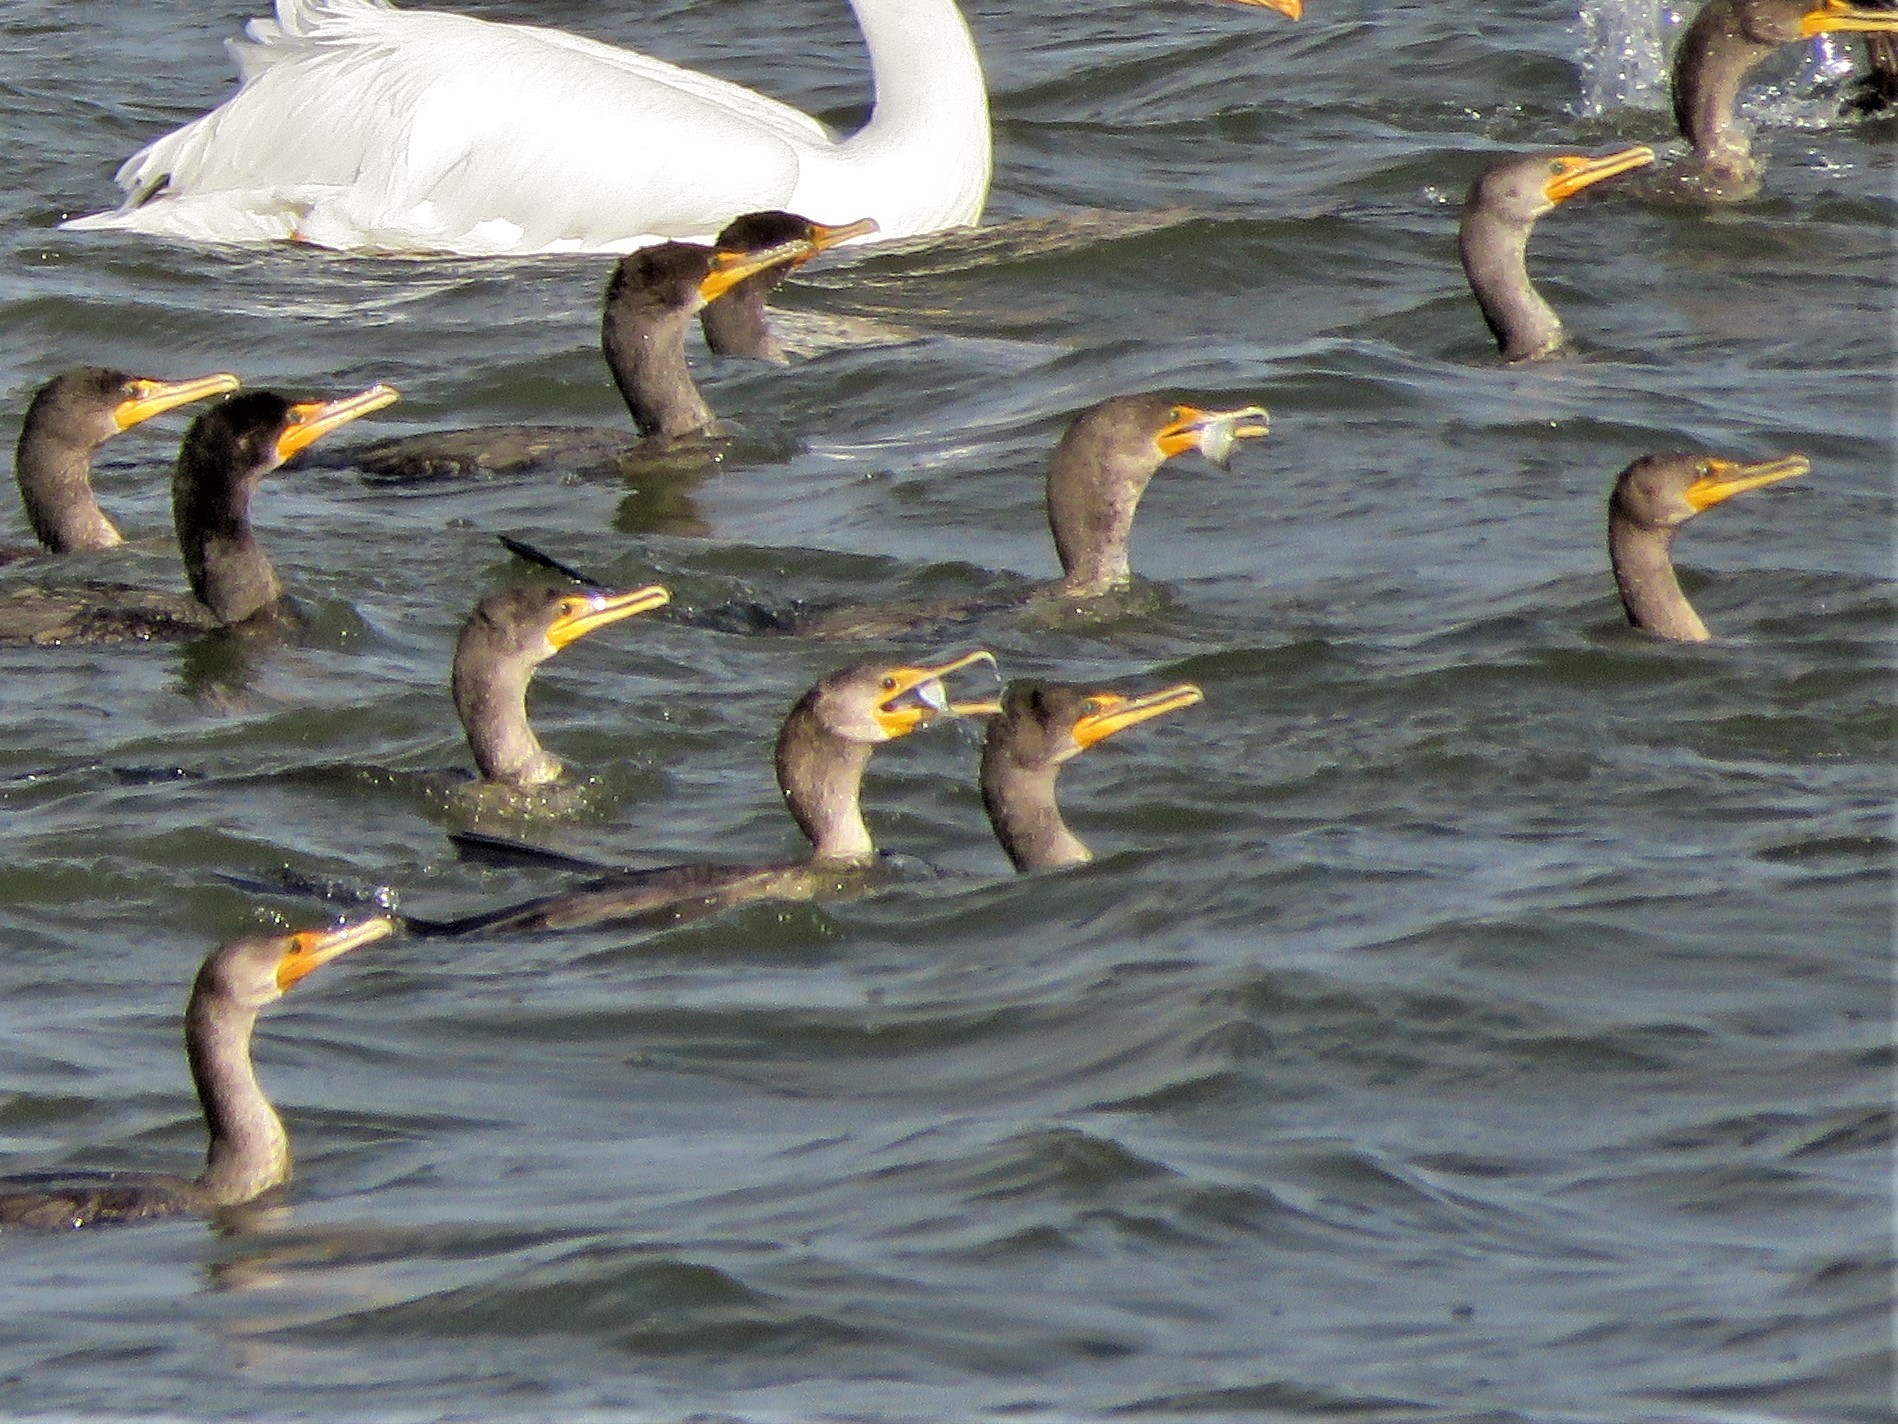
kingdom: Animalia
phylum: Chordata
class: Aves
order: Suliformes
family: Phalacrocoracidae
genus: Phalacrocorax
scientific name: Phalacrocorax auritus
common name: Double-crested cormorant
